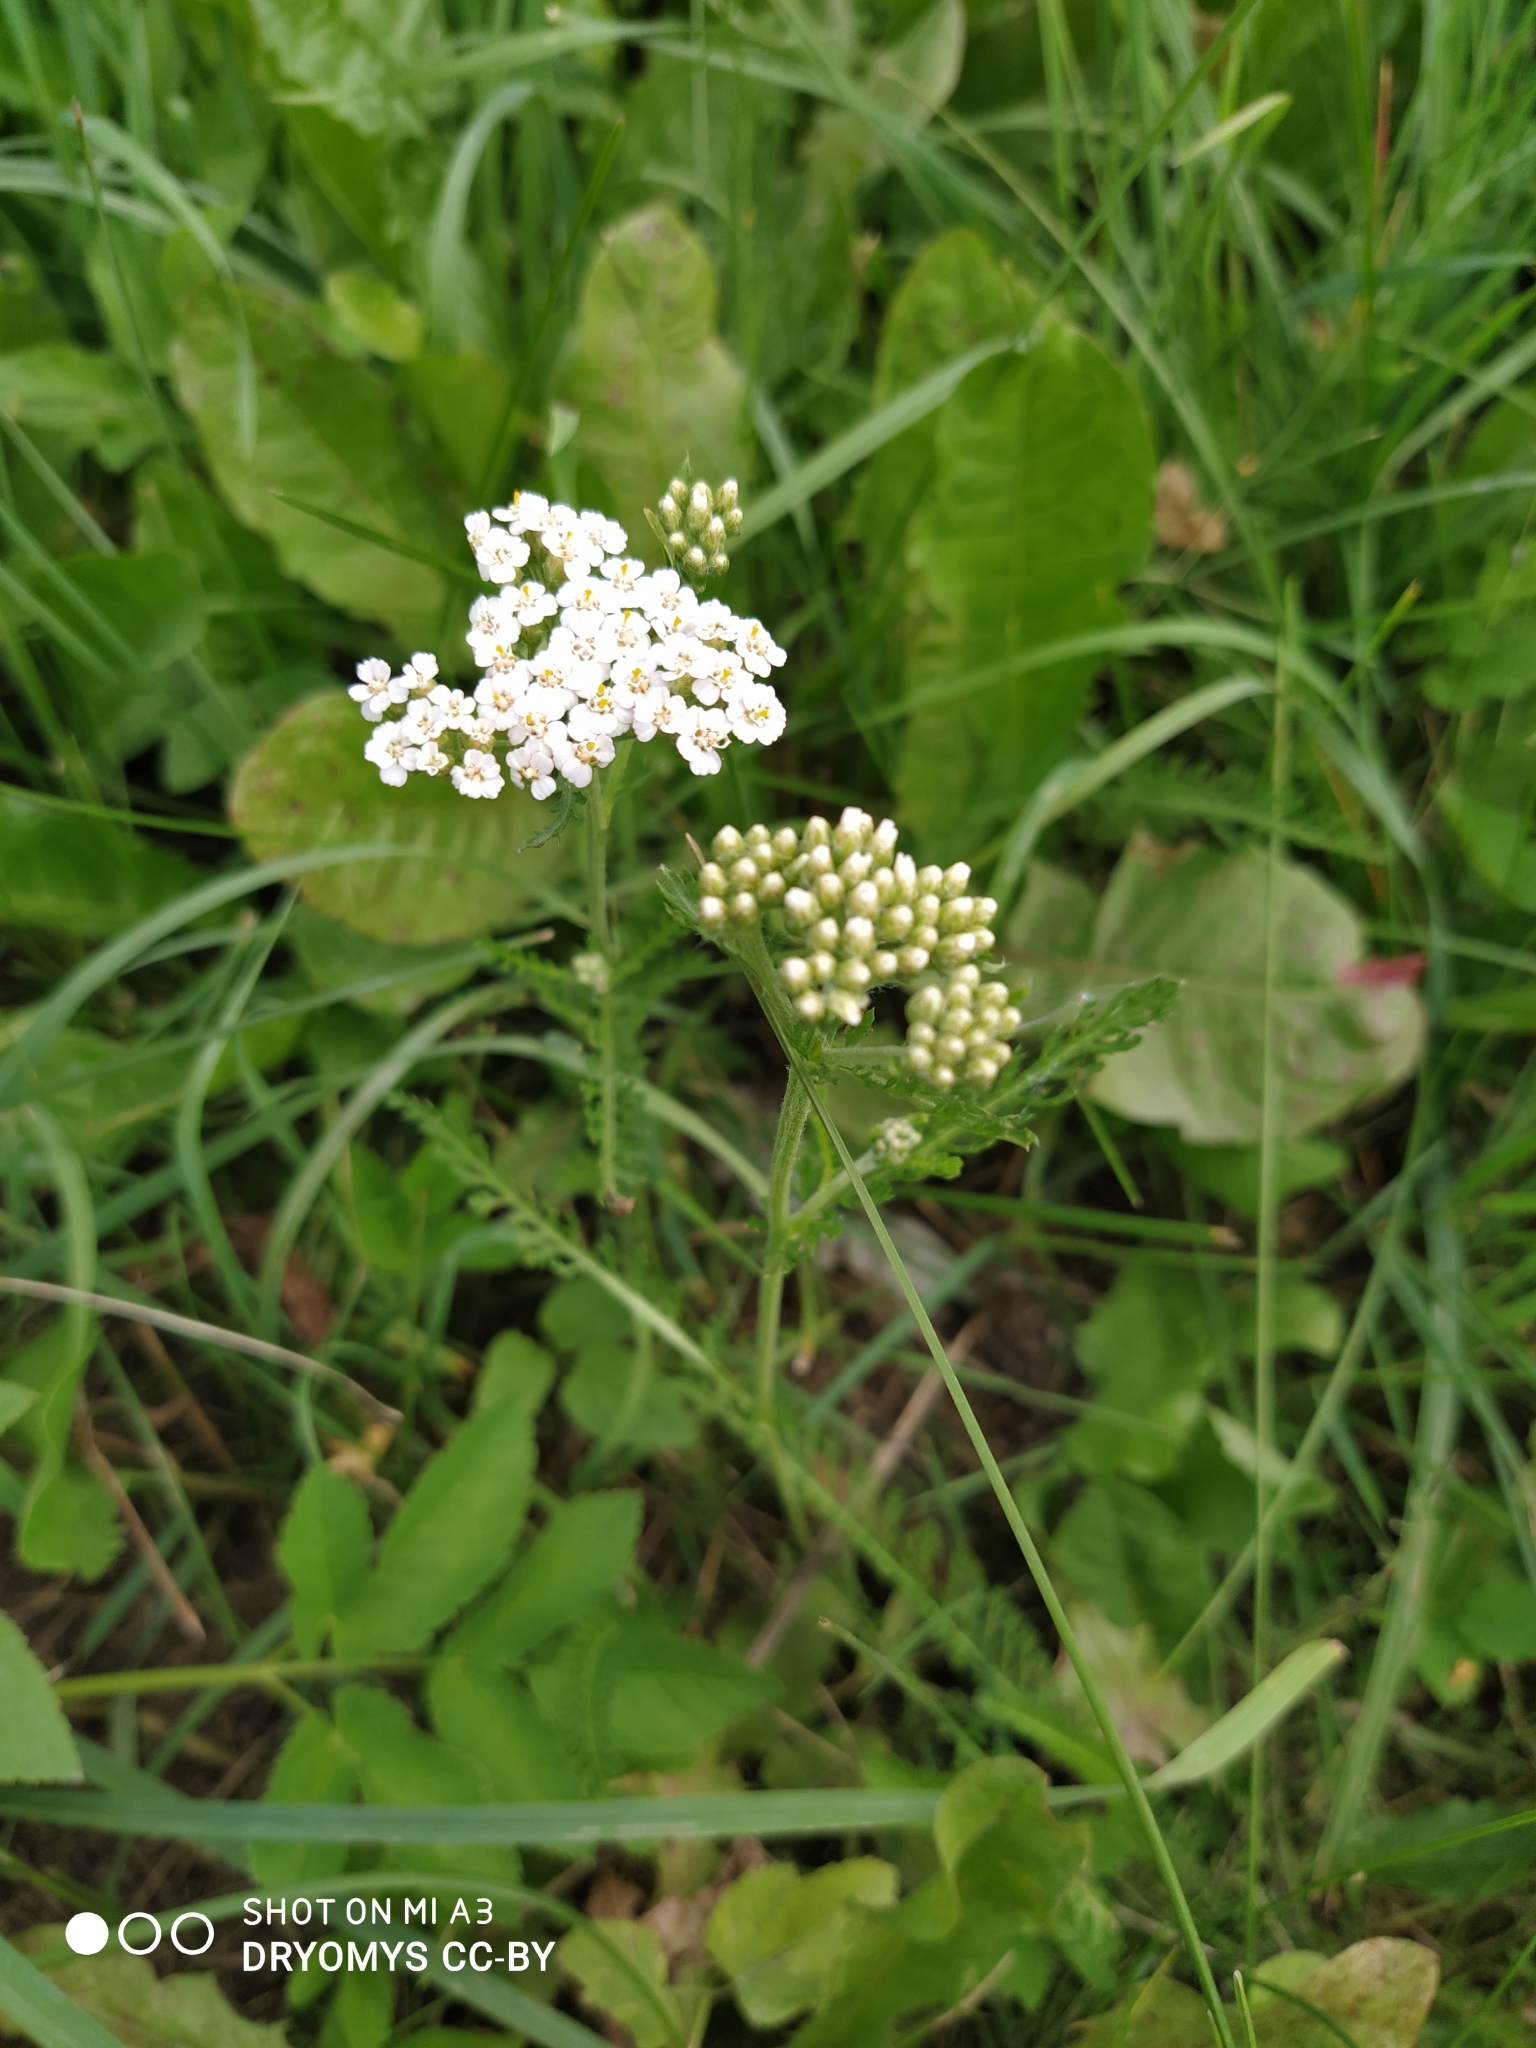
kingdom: Plantae
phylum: Tracheophyta
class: Magnoliopsida
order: Asterales
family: Asteraceae
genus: Achillea
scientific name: Achillea millefolium
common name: Yarrow
